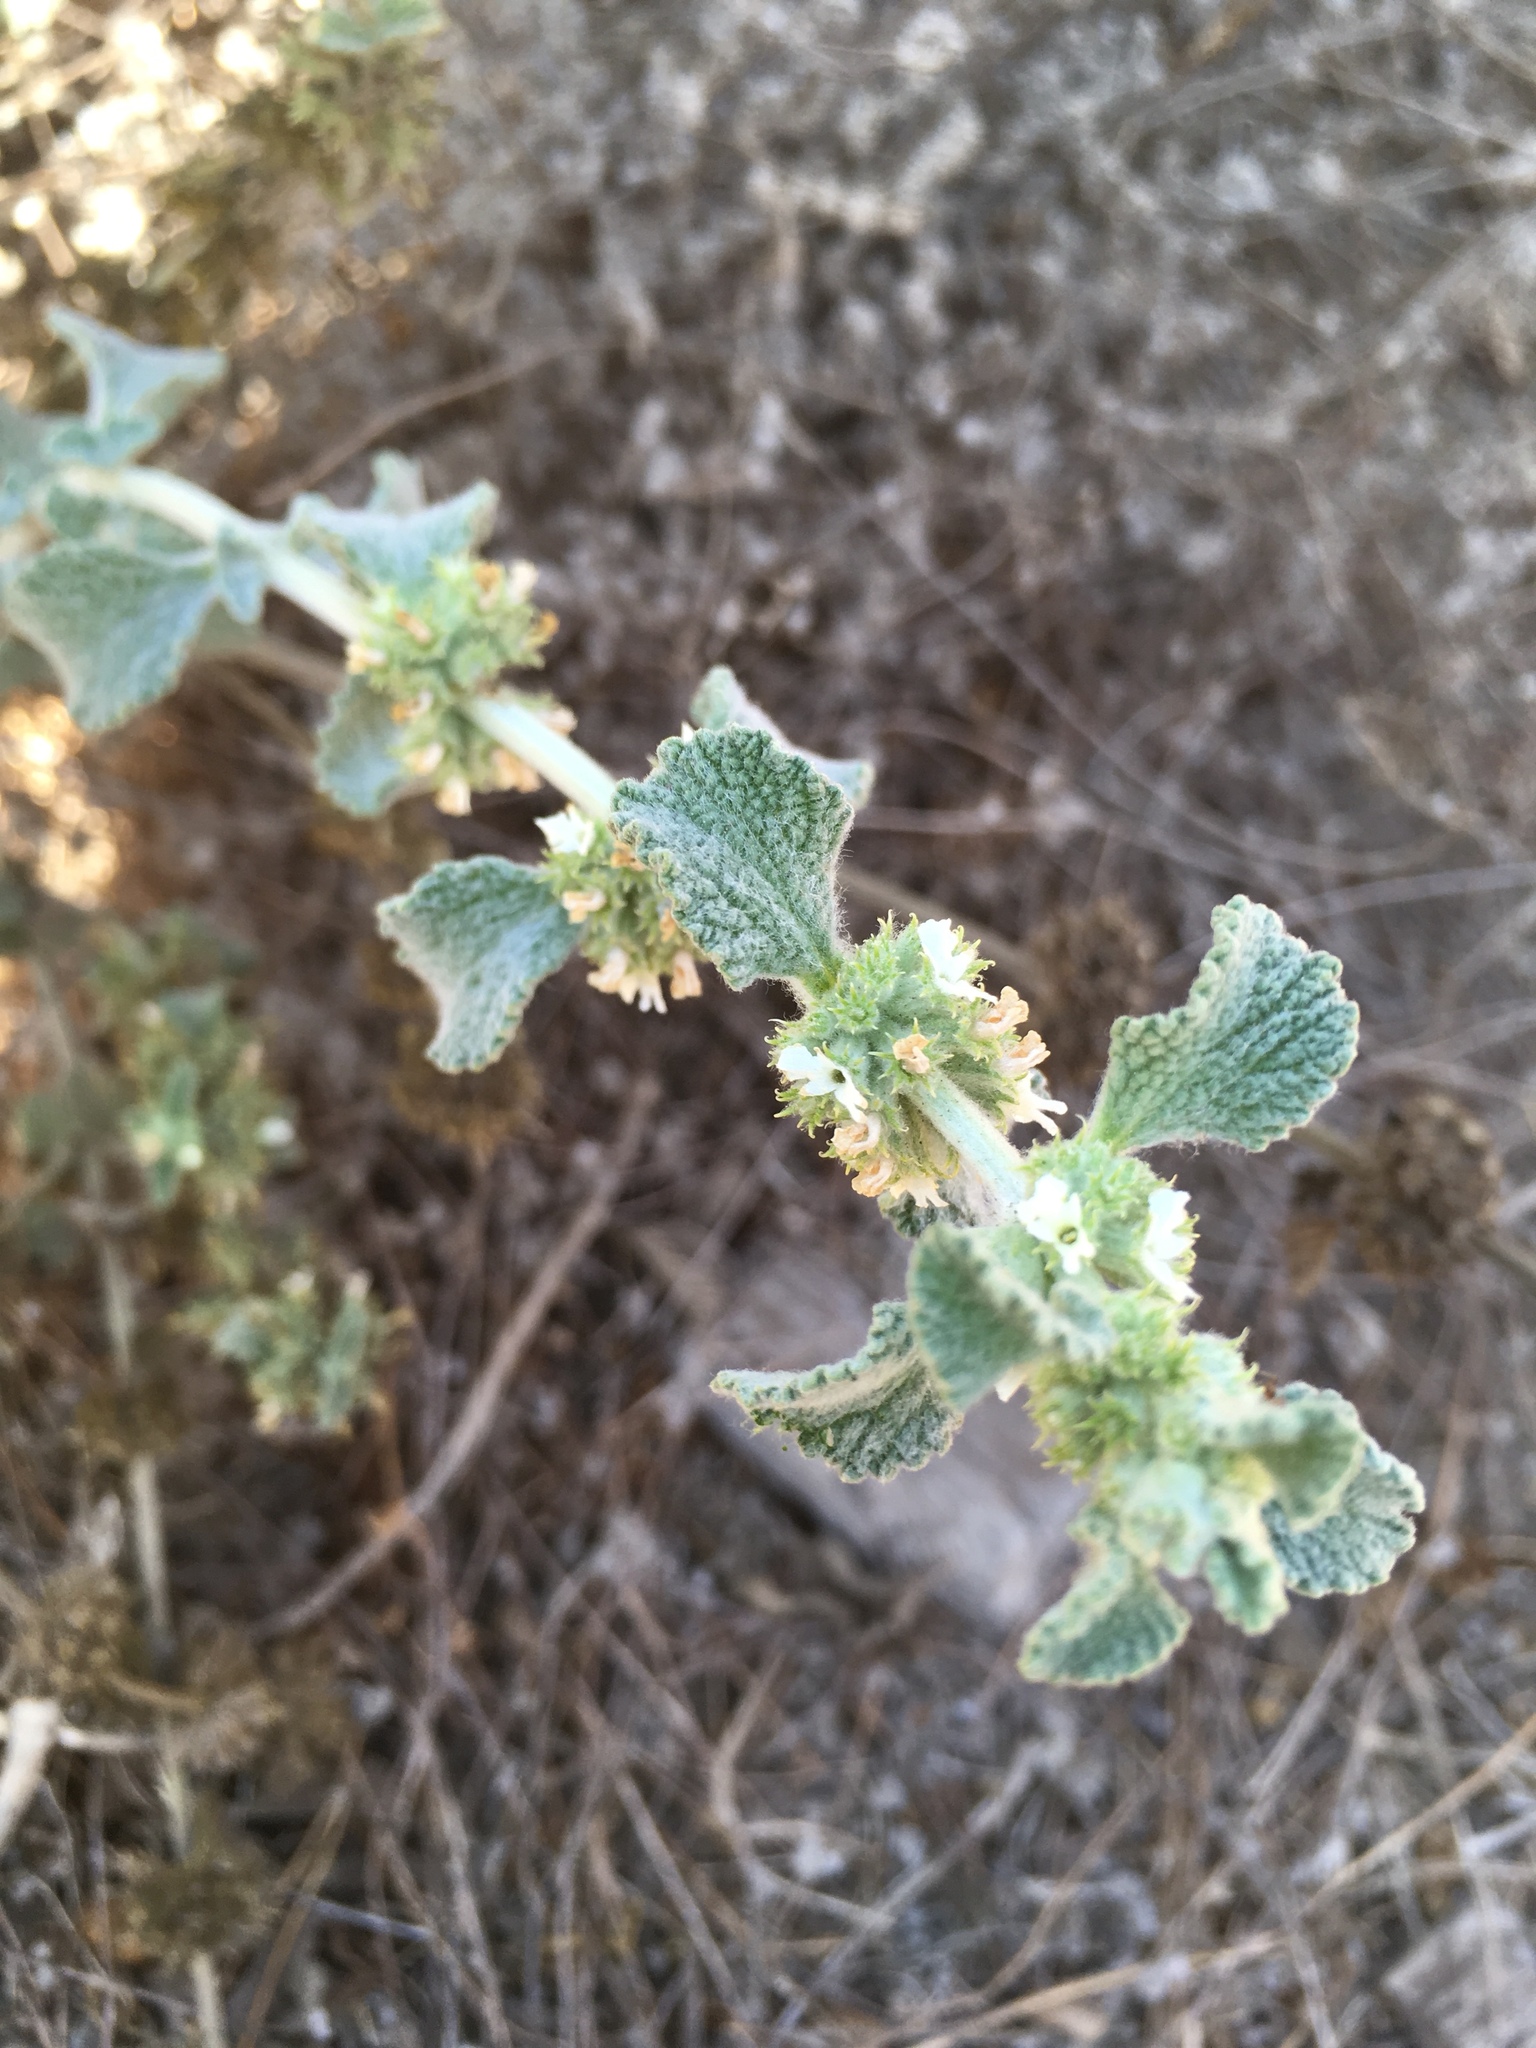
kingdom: Plantae
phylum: Tracheophyta
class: Magnoliopsida
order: Lamiales
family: Lamiaceae
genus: Marrubium
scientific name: Marrubium vulgare
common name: Horehound
